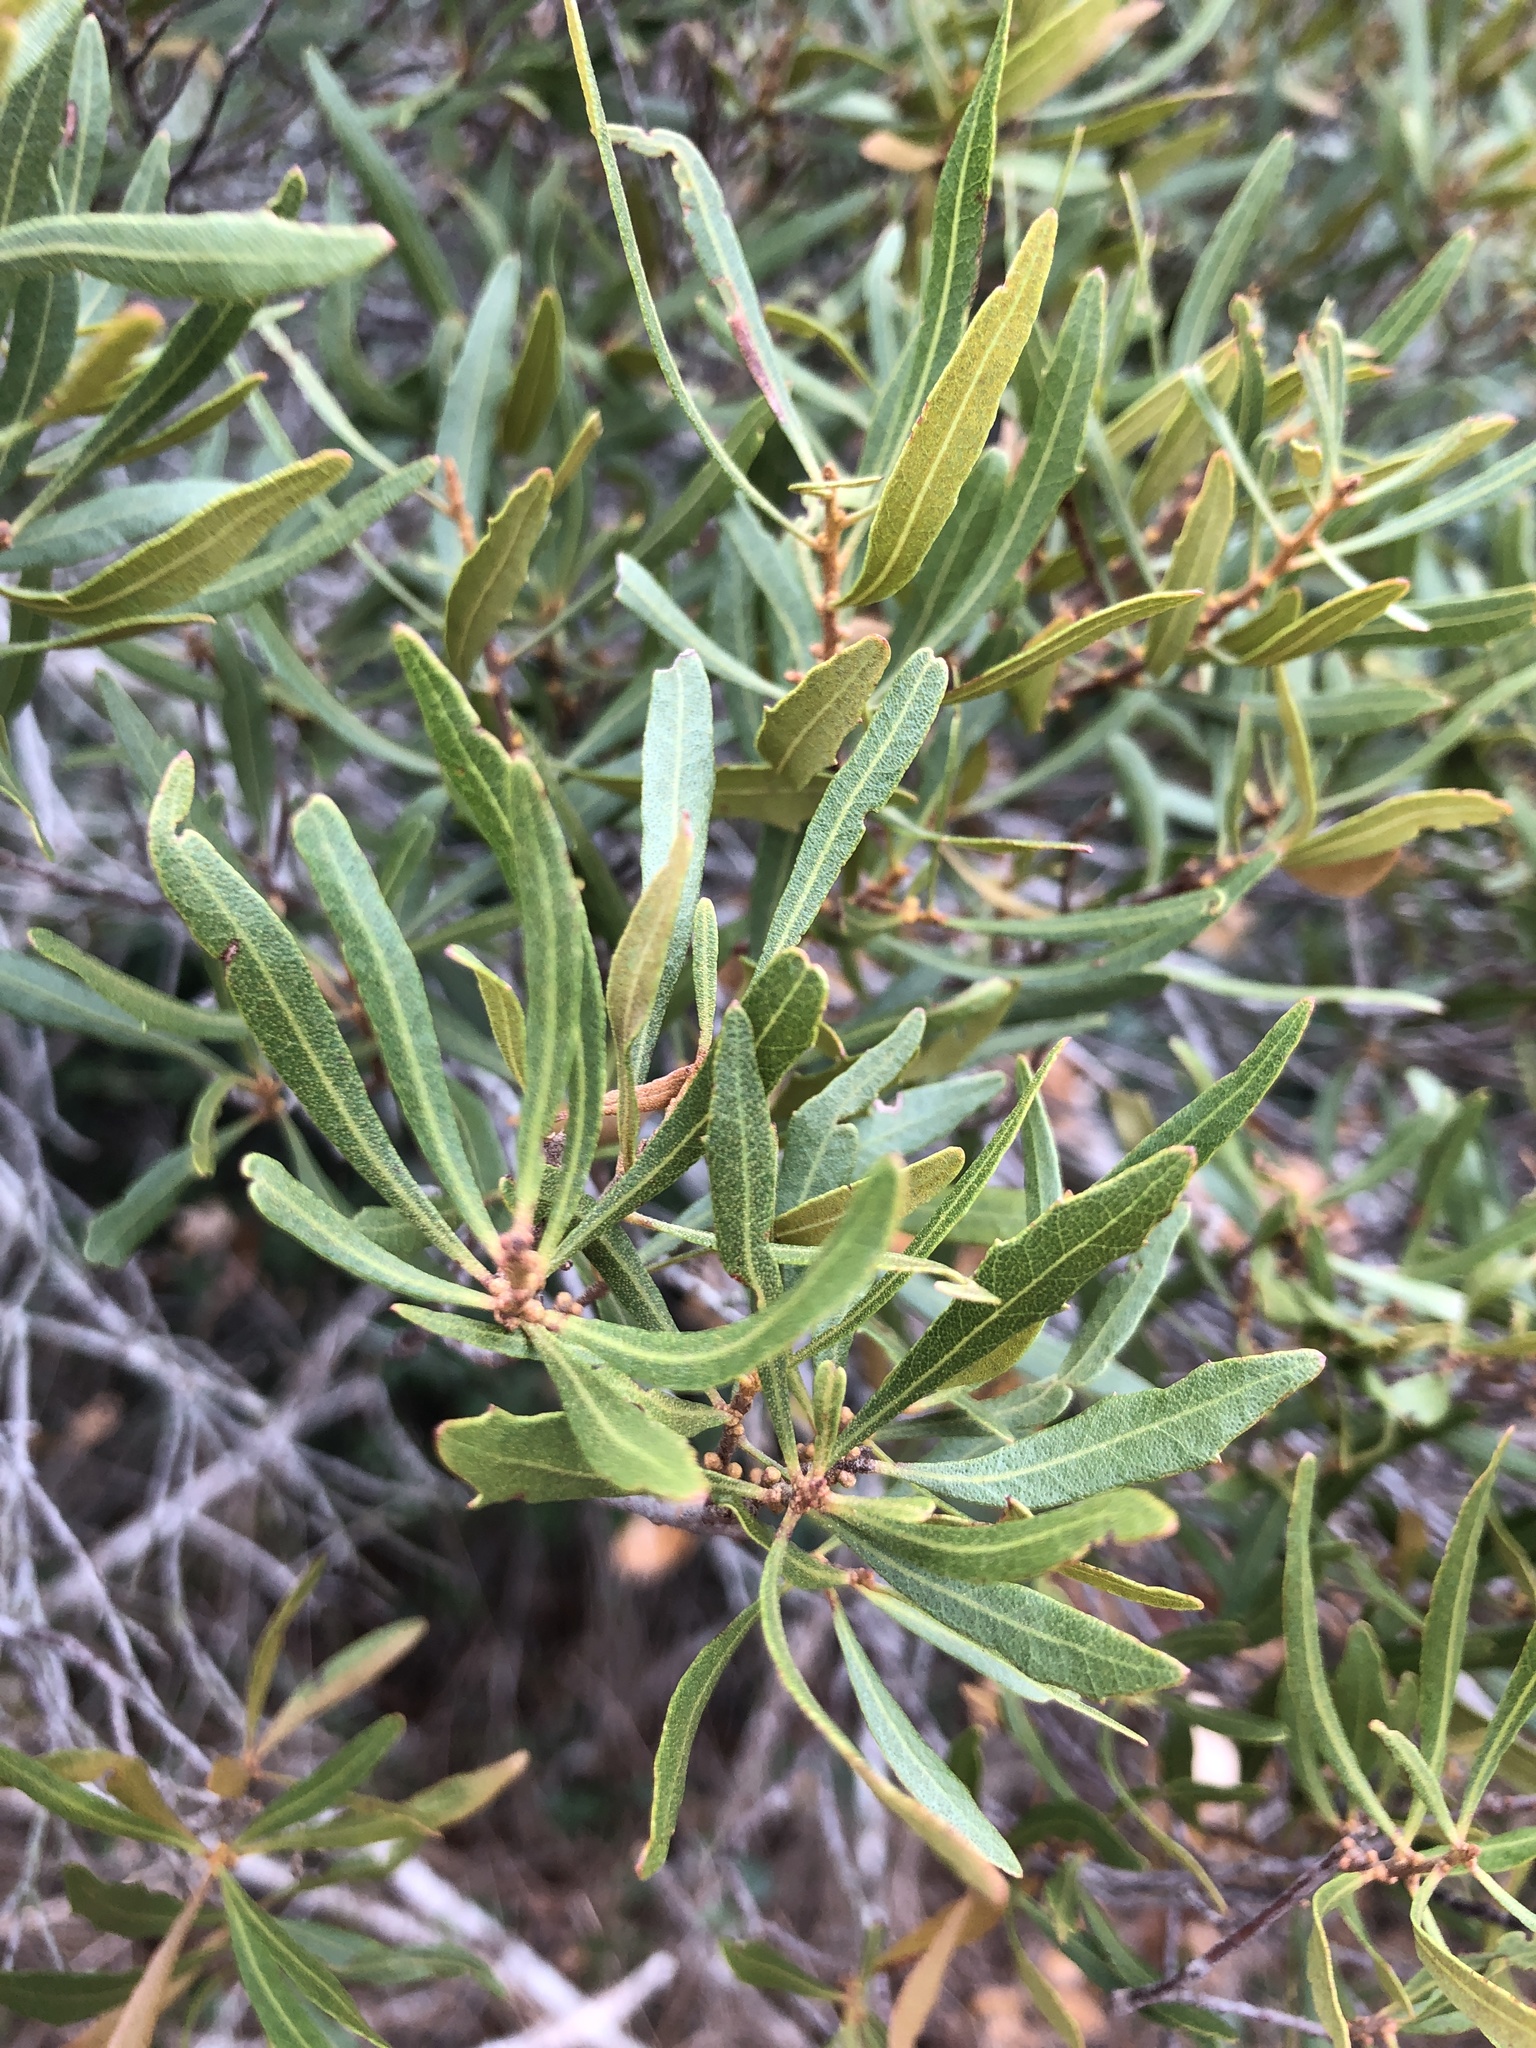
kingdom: Plantae
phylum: Tracheophyta
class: Magnoliopsida
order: Fagales
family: Myricaceae
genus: Morella
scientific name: Morella cerifera
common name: Wax myrtle
